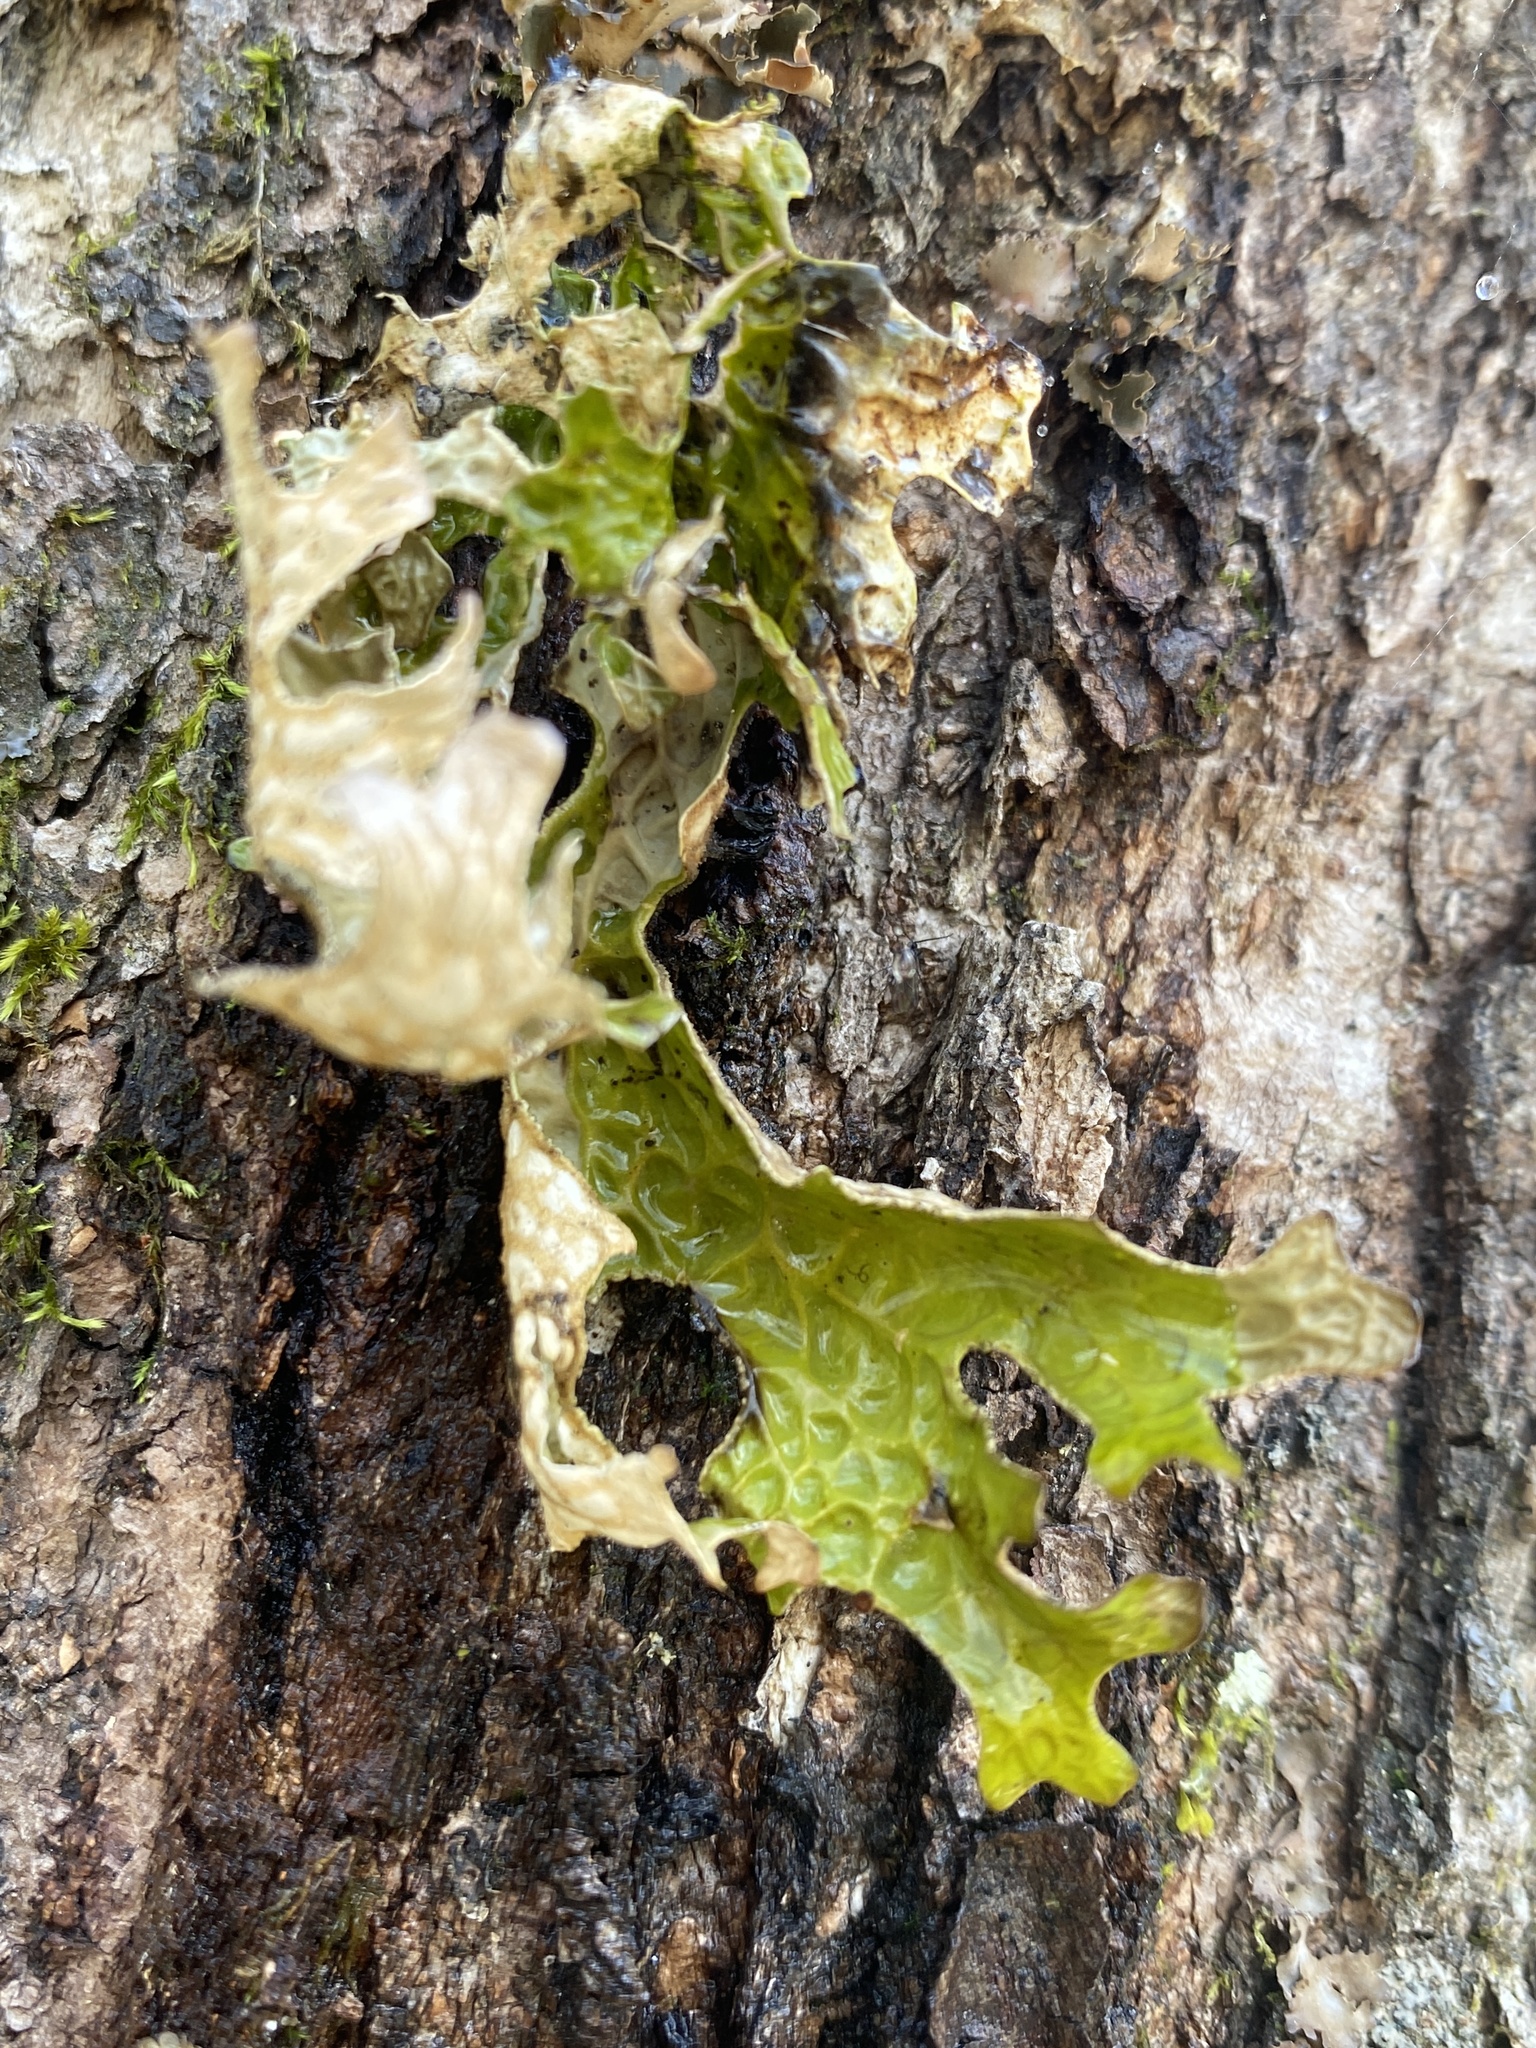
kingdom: Fungi
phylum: Ascomycota
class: Lecanoromycetes
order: Peltigerales
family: Lobariaceae
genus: Lobaria
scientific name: Lobaria pulmonaria
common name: Lungwort
